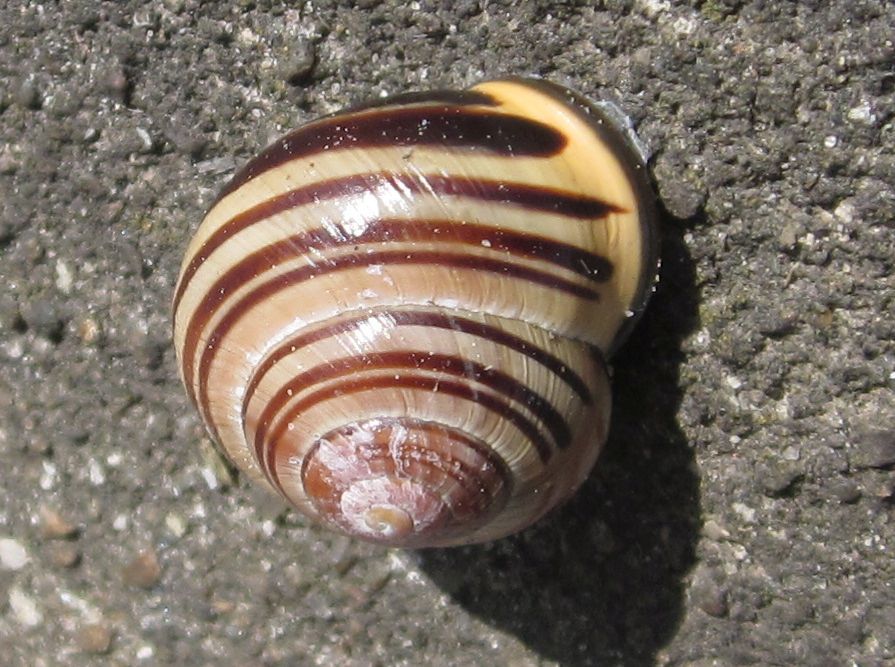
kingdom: Animalia
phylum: Mollusca
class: Gastropoda
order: Stylommatophora
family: Helicidae
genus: Cepaea
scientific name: Cepaea nemoralis
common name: Grovesnail
